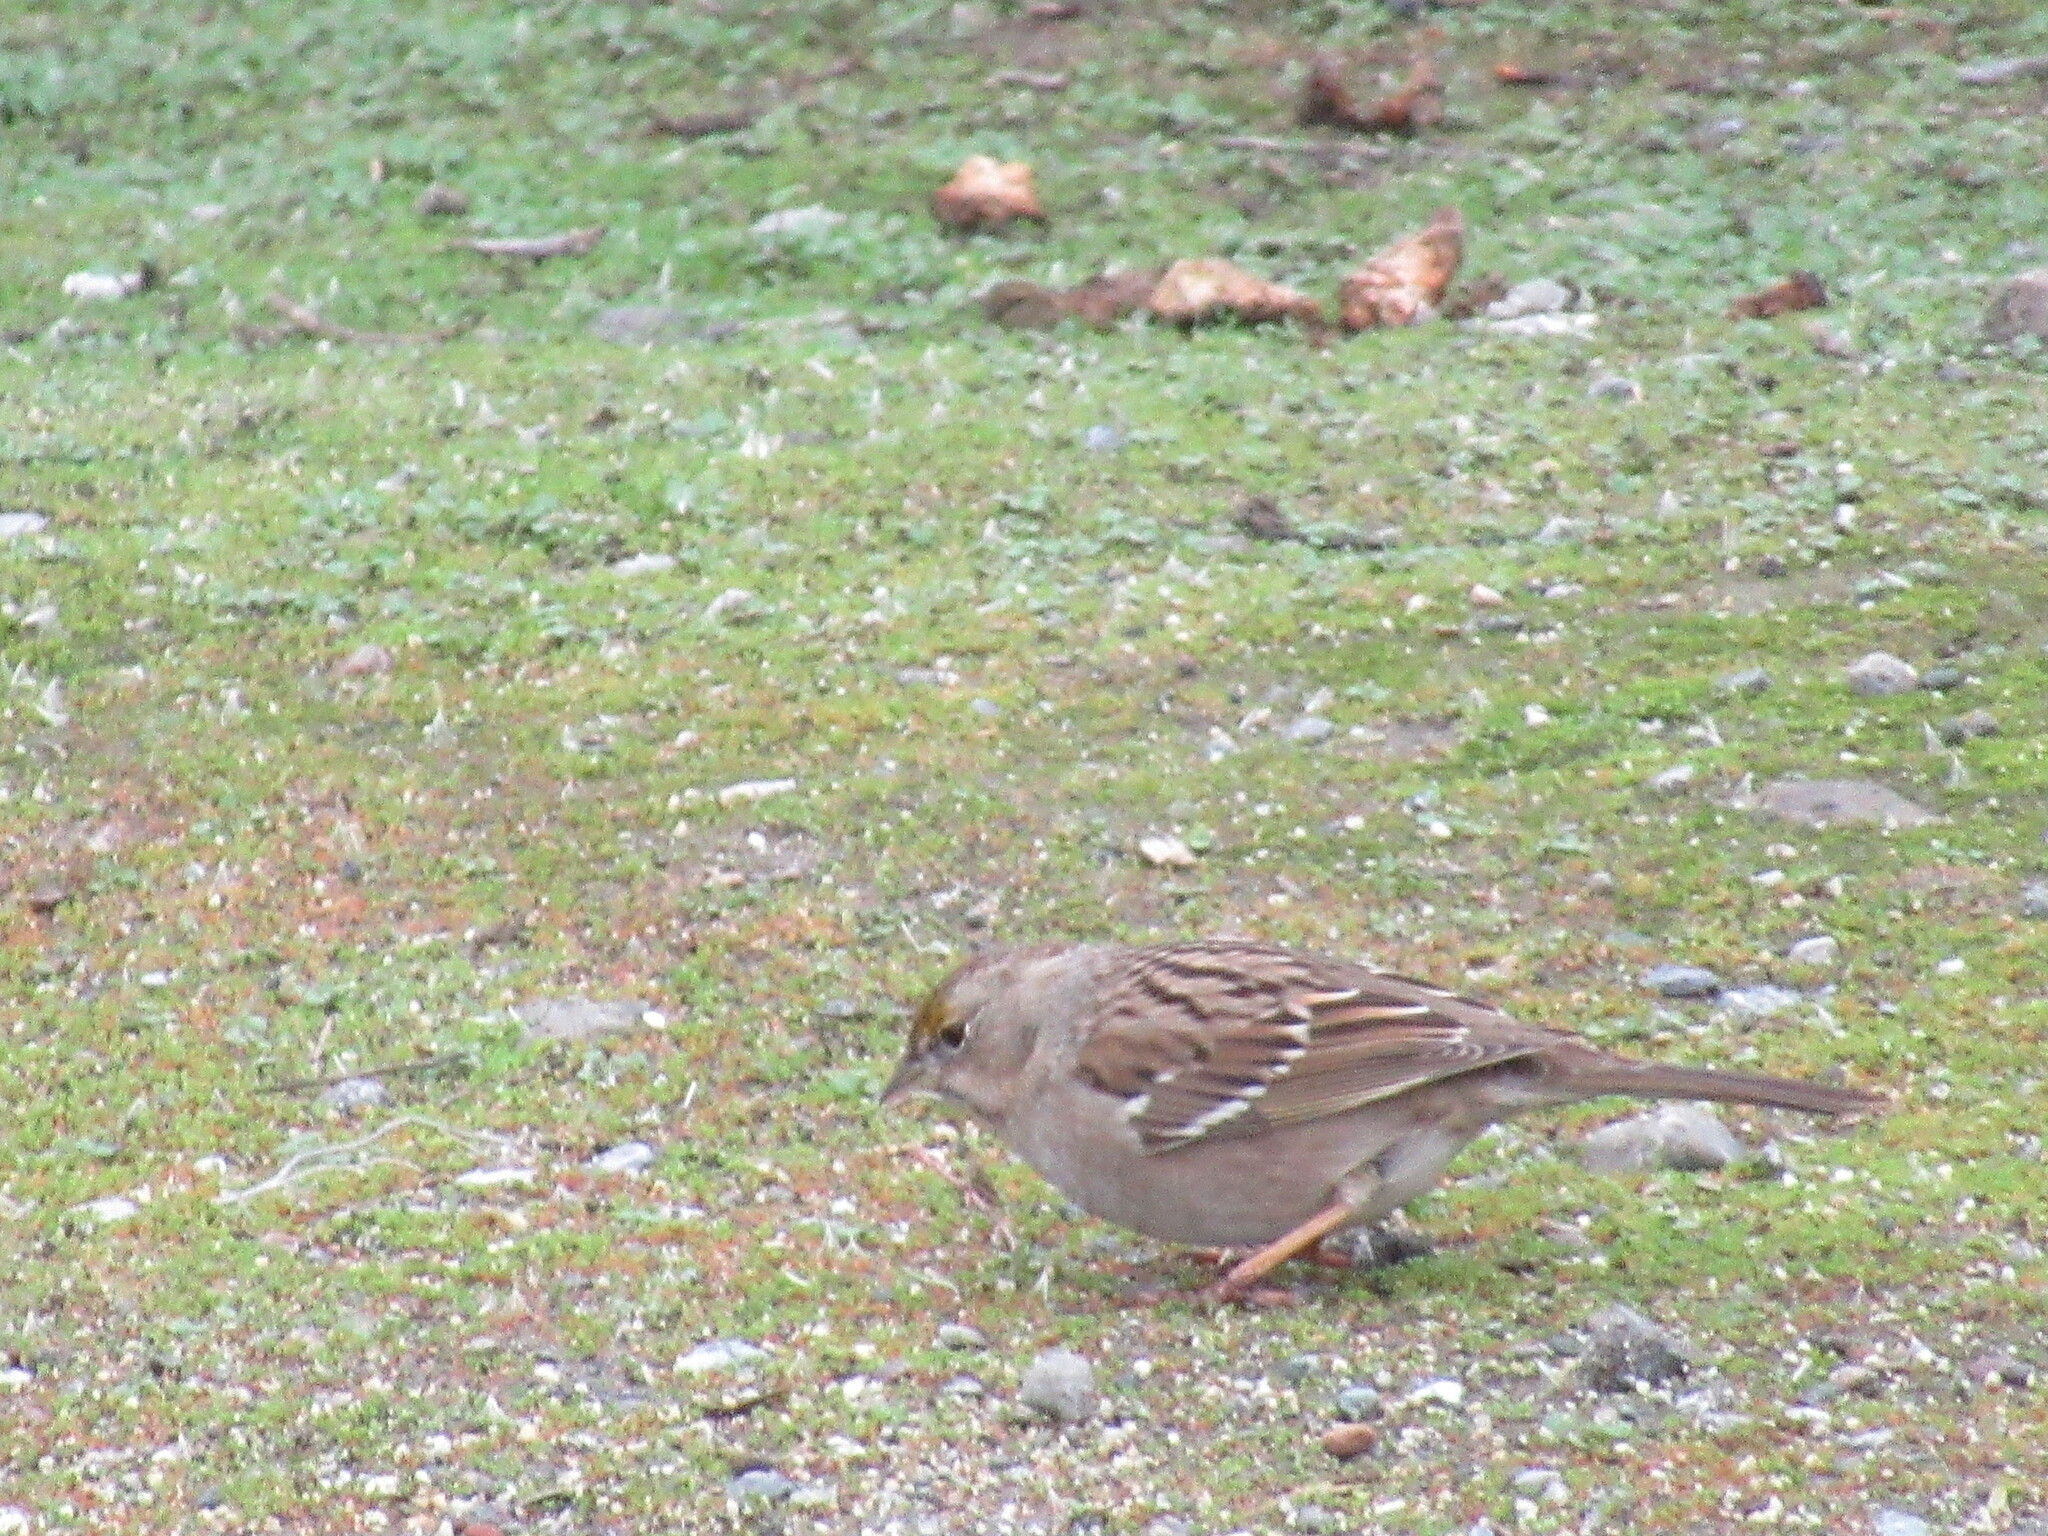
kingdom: Animalia
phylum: Chordata
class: Aves
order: Passeriformes
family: Passerellidae
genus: Zonotrichia
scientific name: Zonotrichia atricapilla
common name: Golden-crowned sparrow
